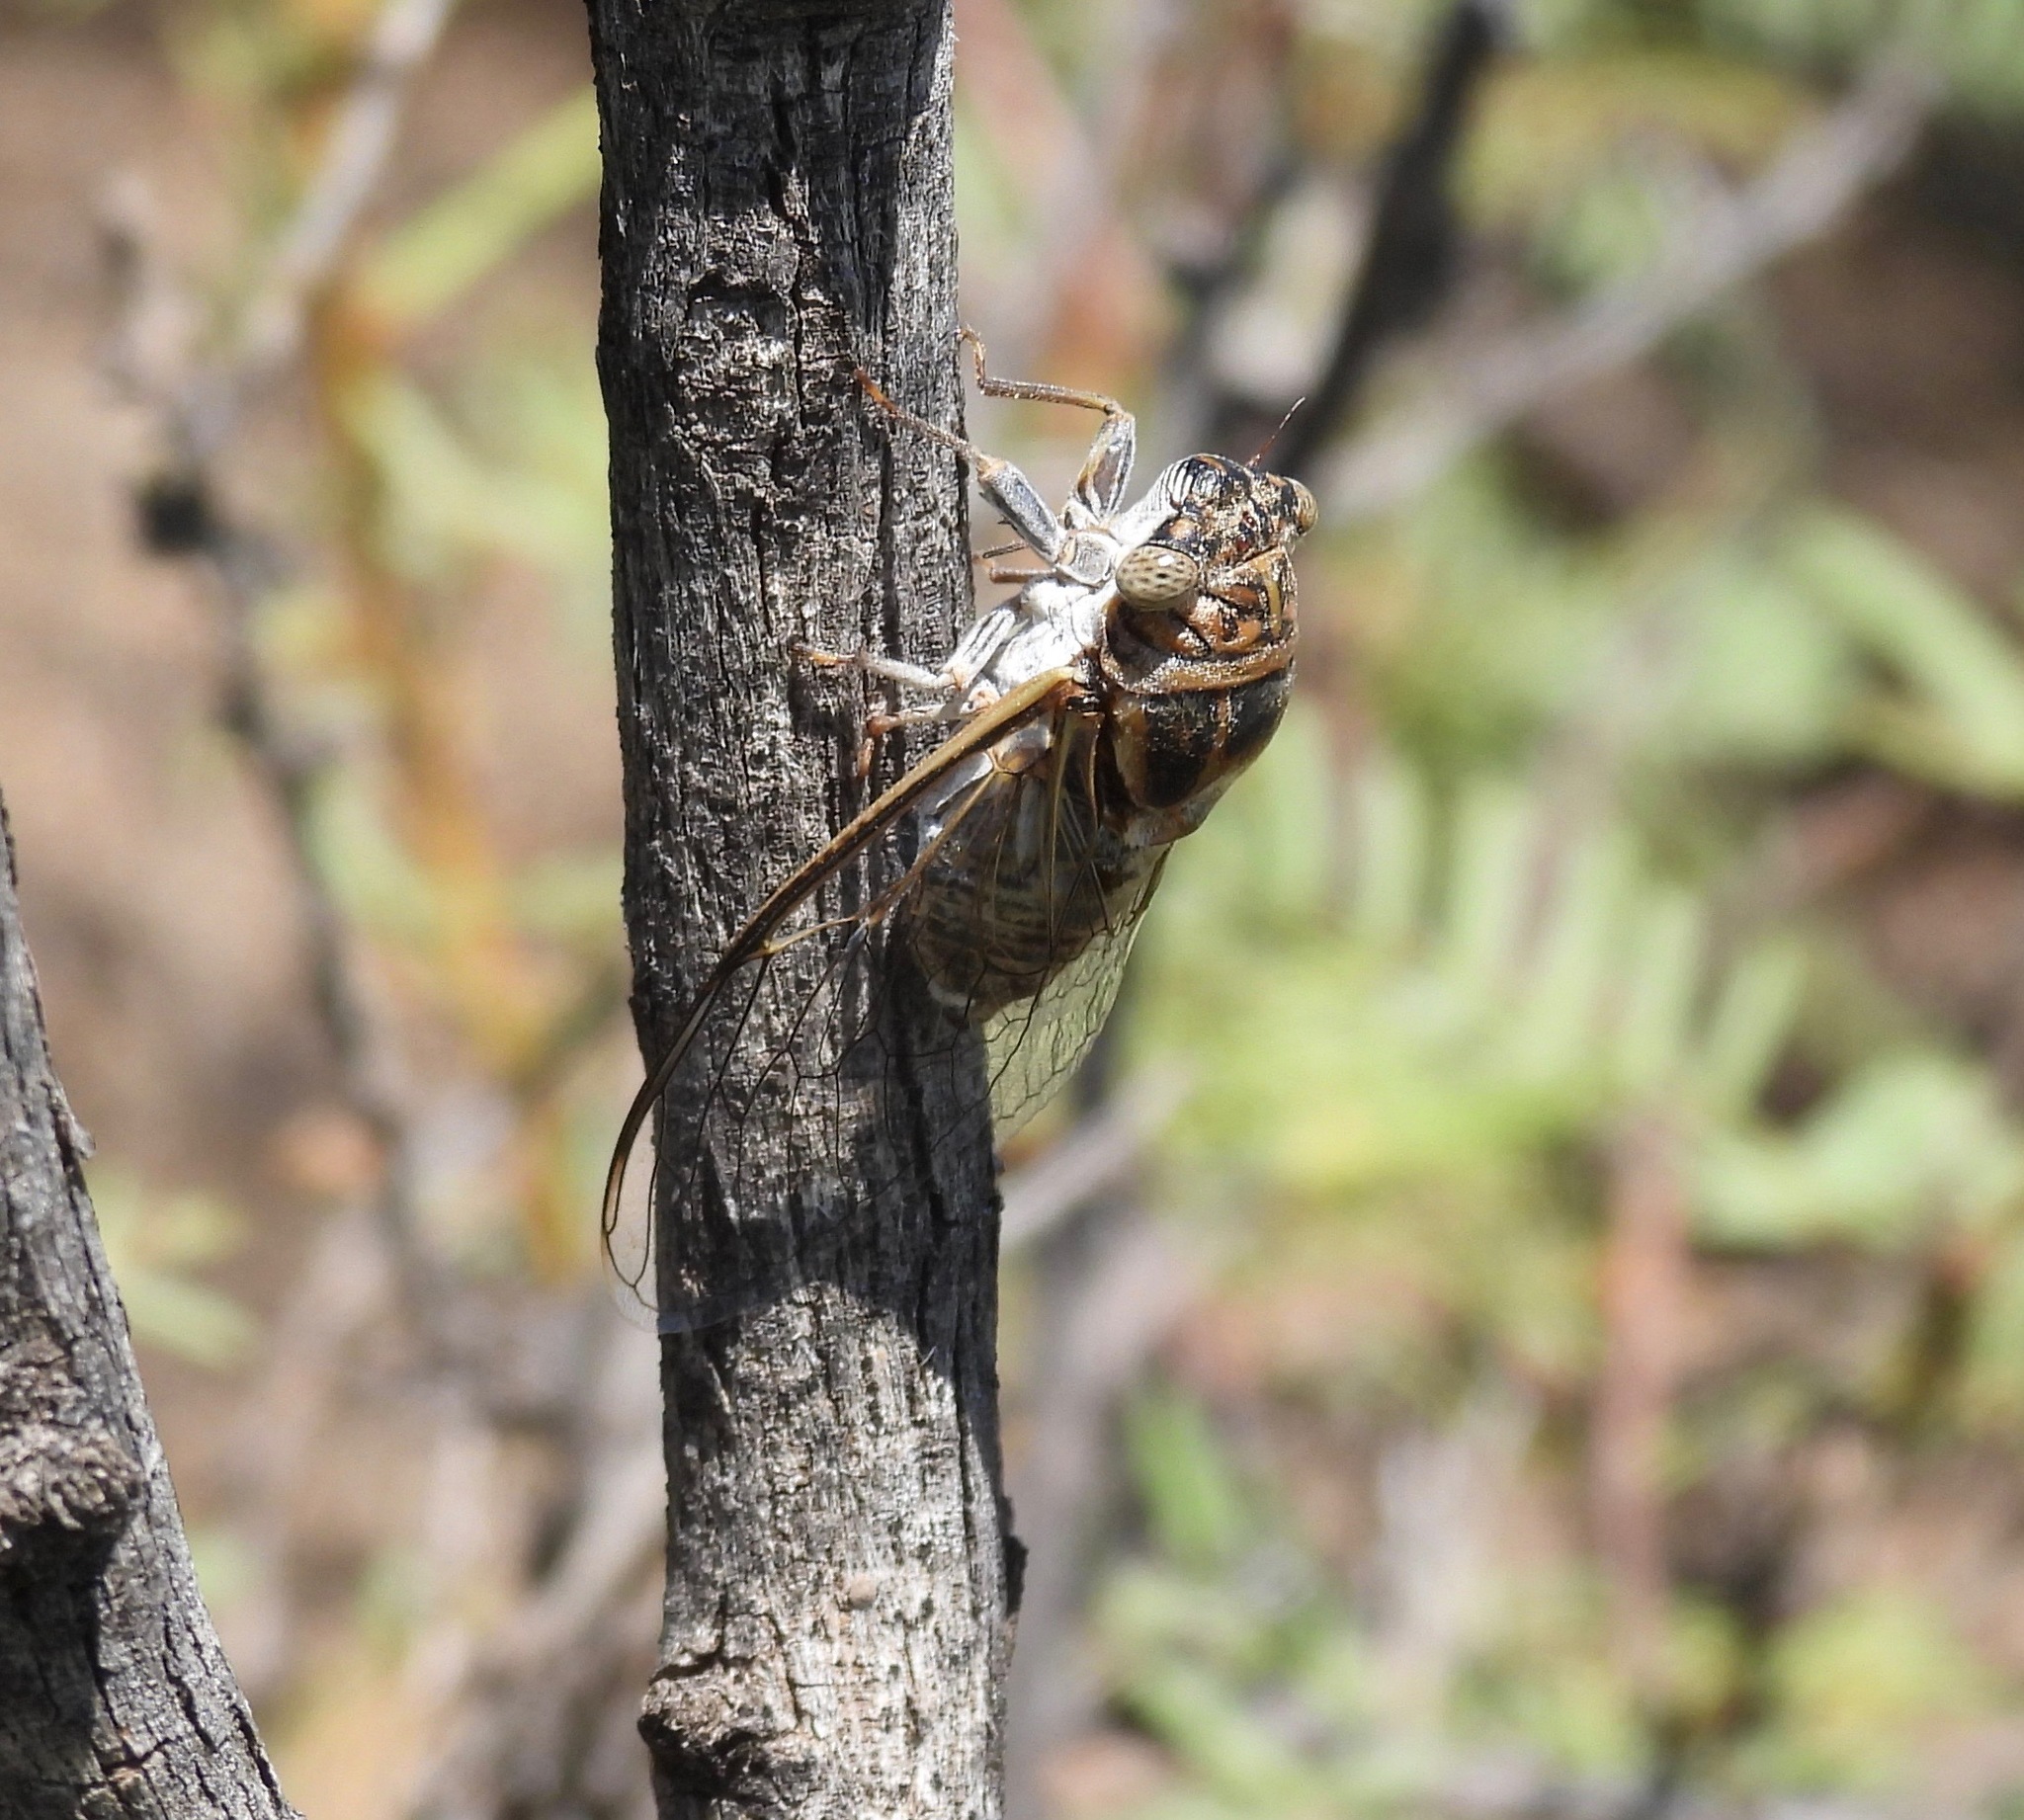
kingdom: Animalia
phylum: Arthropoda
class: Insecta
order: Hemiptera
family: Cicadidae
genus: Diceroprocta
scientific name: Diceroprocta eugraphica
